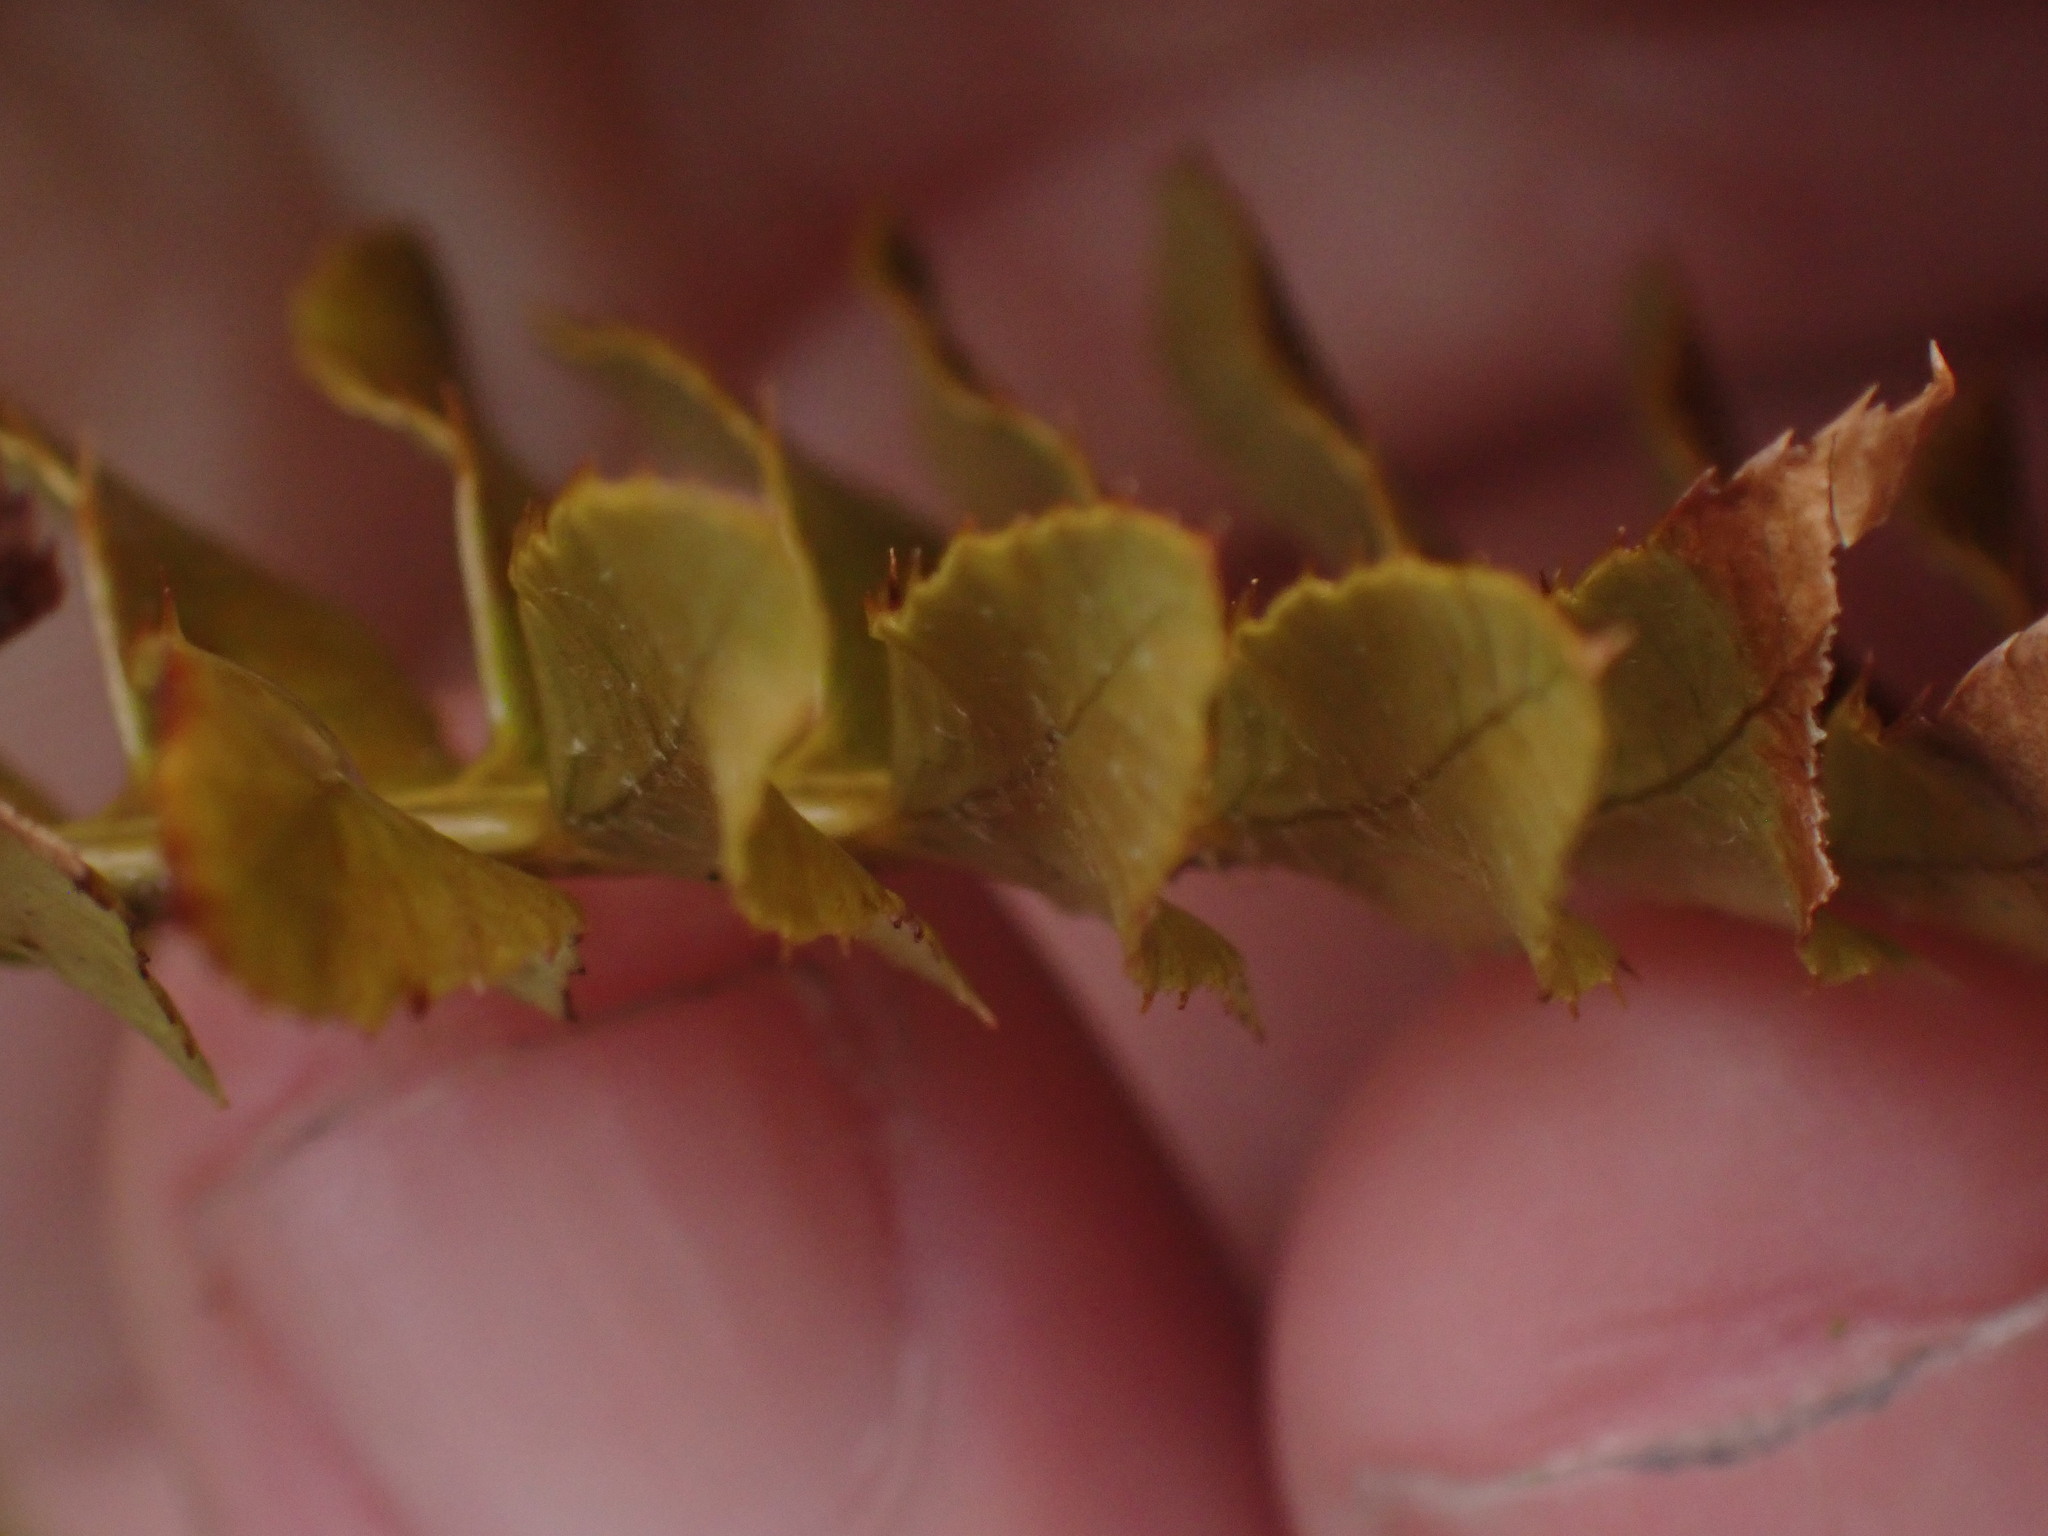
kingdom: Plantae
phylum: Tracheophyta
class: Polypodiopsida
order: Polypodiales
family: Dryopteridaceae
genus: Polystichum
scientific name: Polystichum imbricans
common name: Dwarf western sword fern
